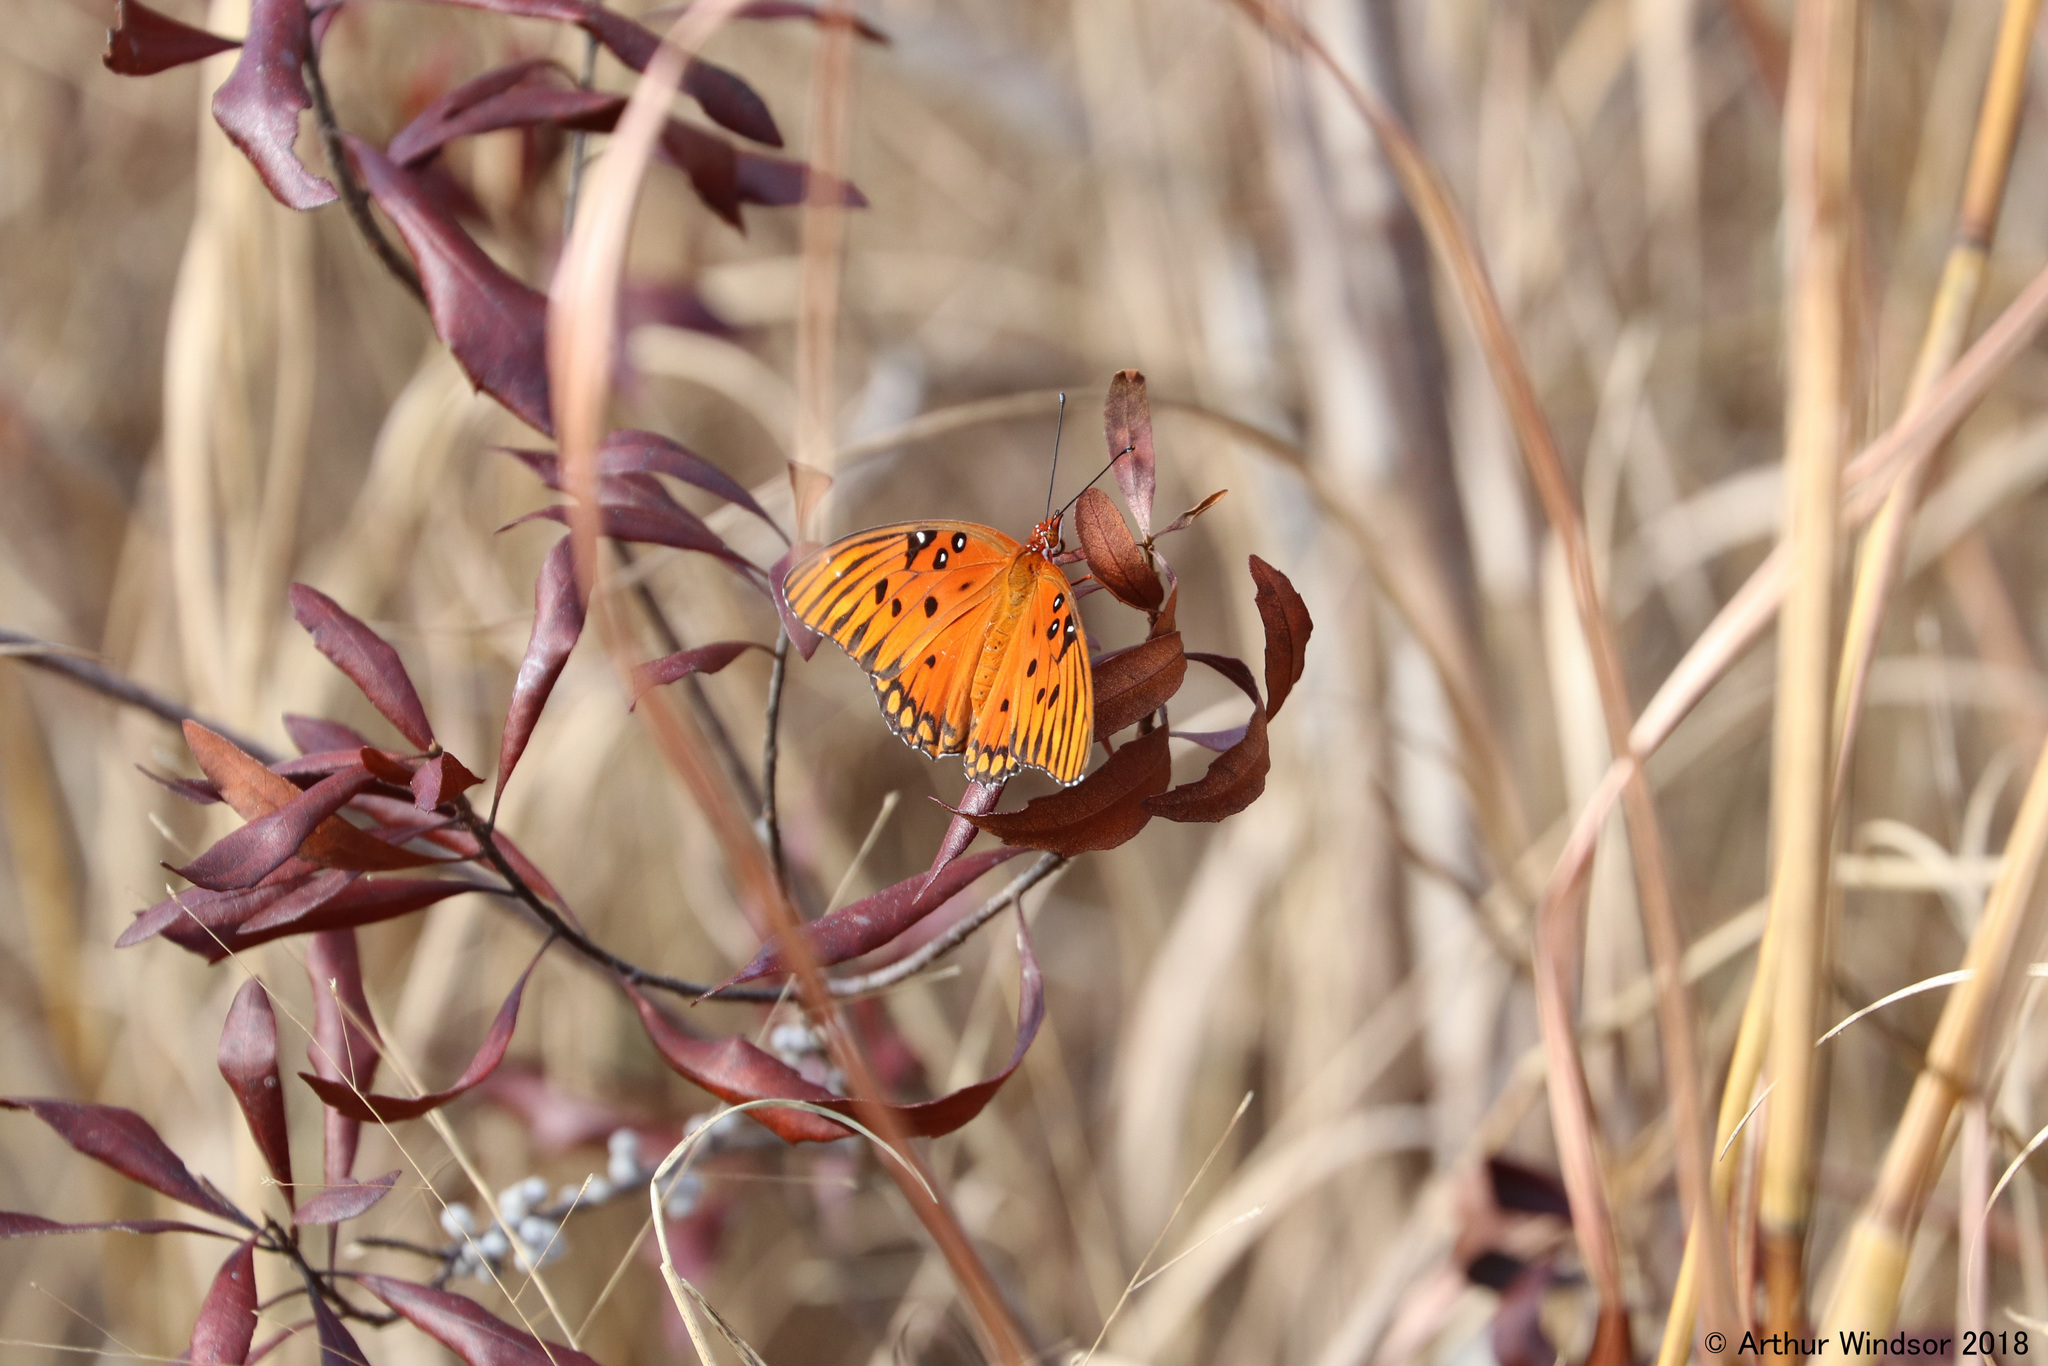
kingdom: Animalia
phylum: Arthropoda
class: Insecta
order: Lepidoptera
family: Nymphalidae
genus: Dione
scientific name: Dione vanillae
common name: Gulf fritillary
